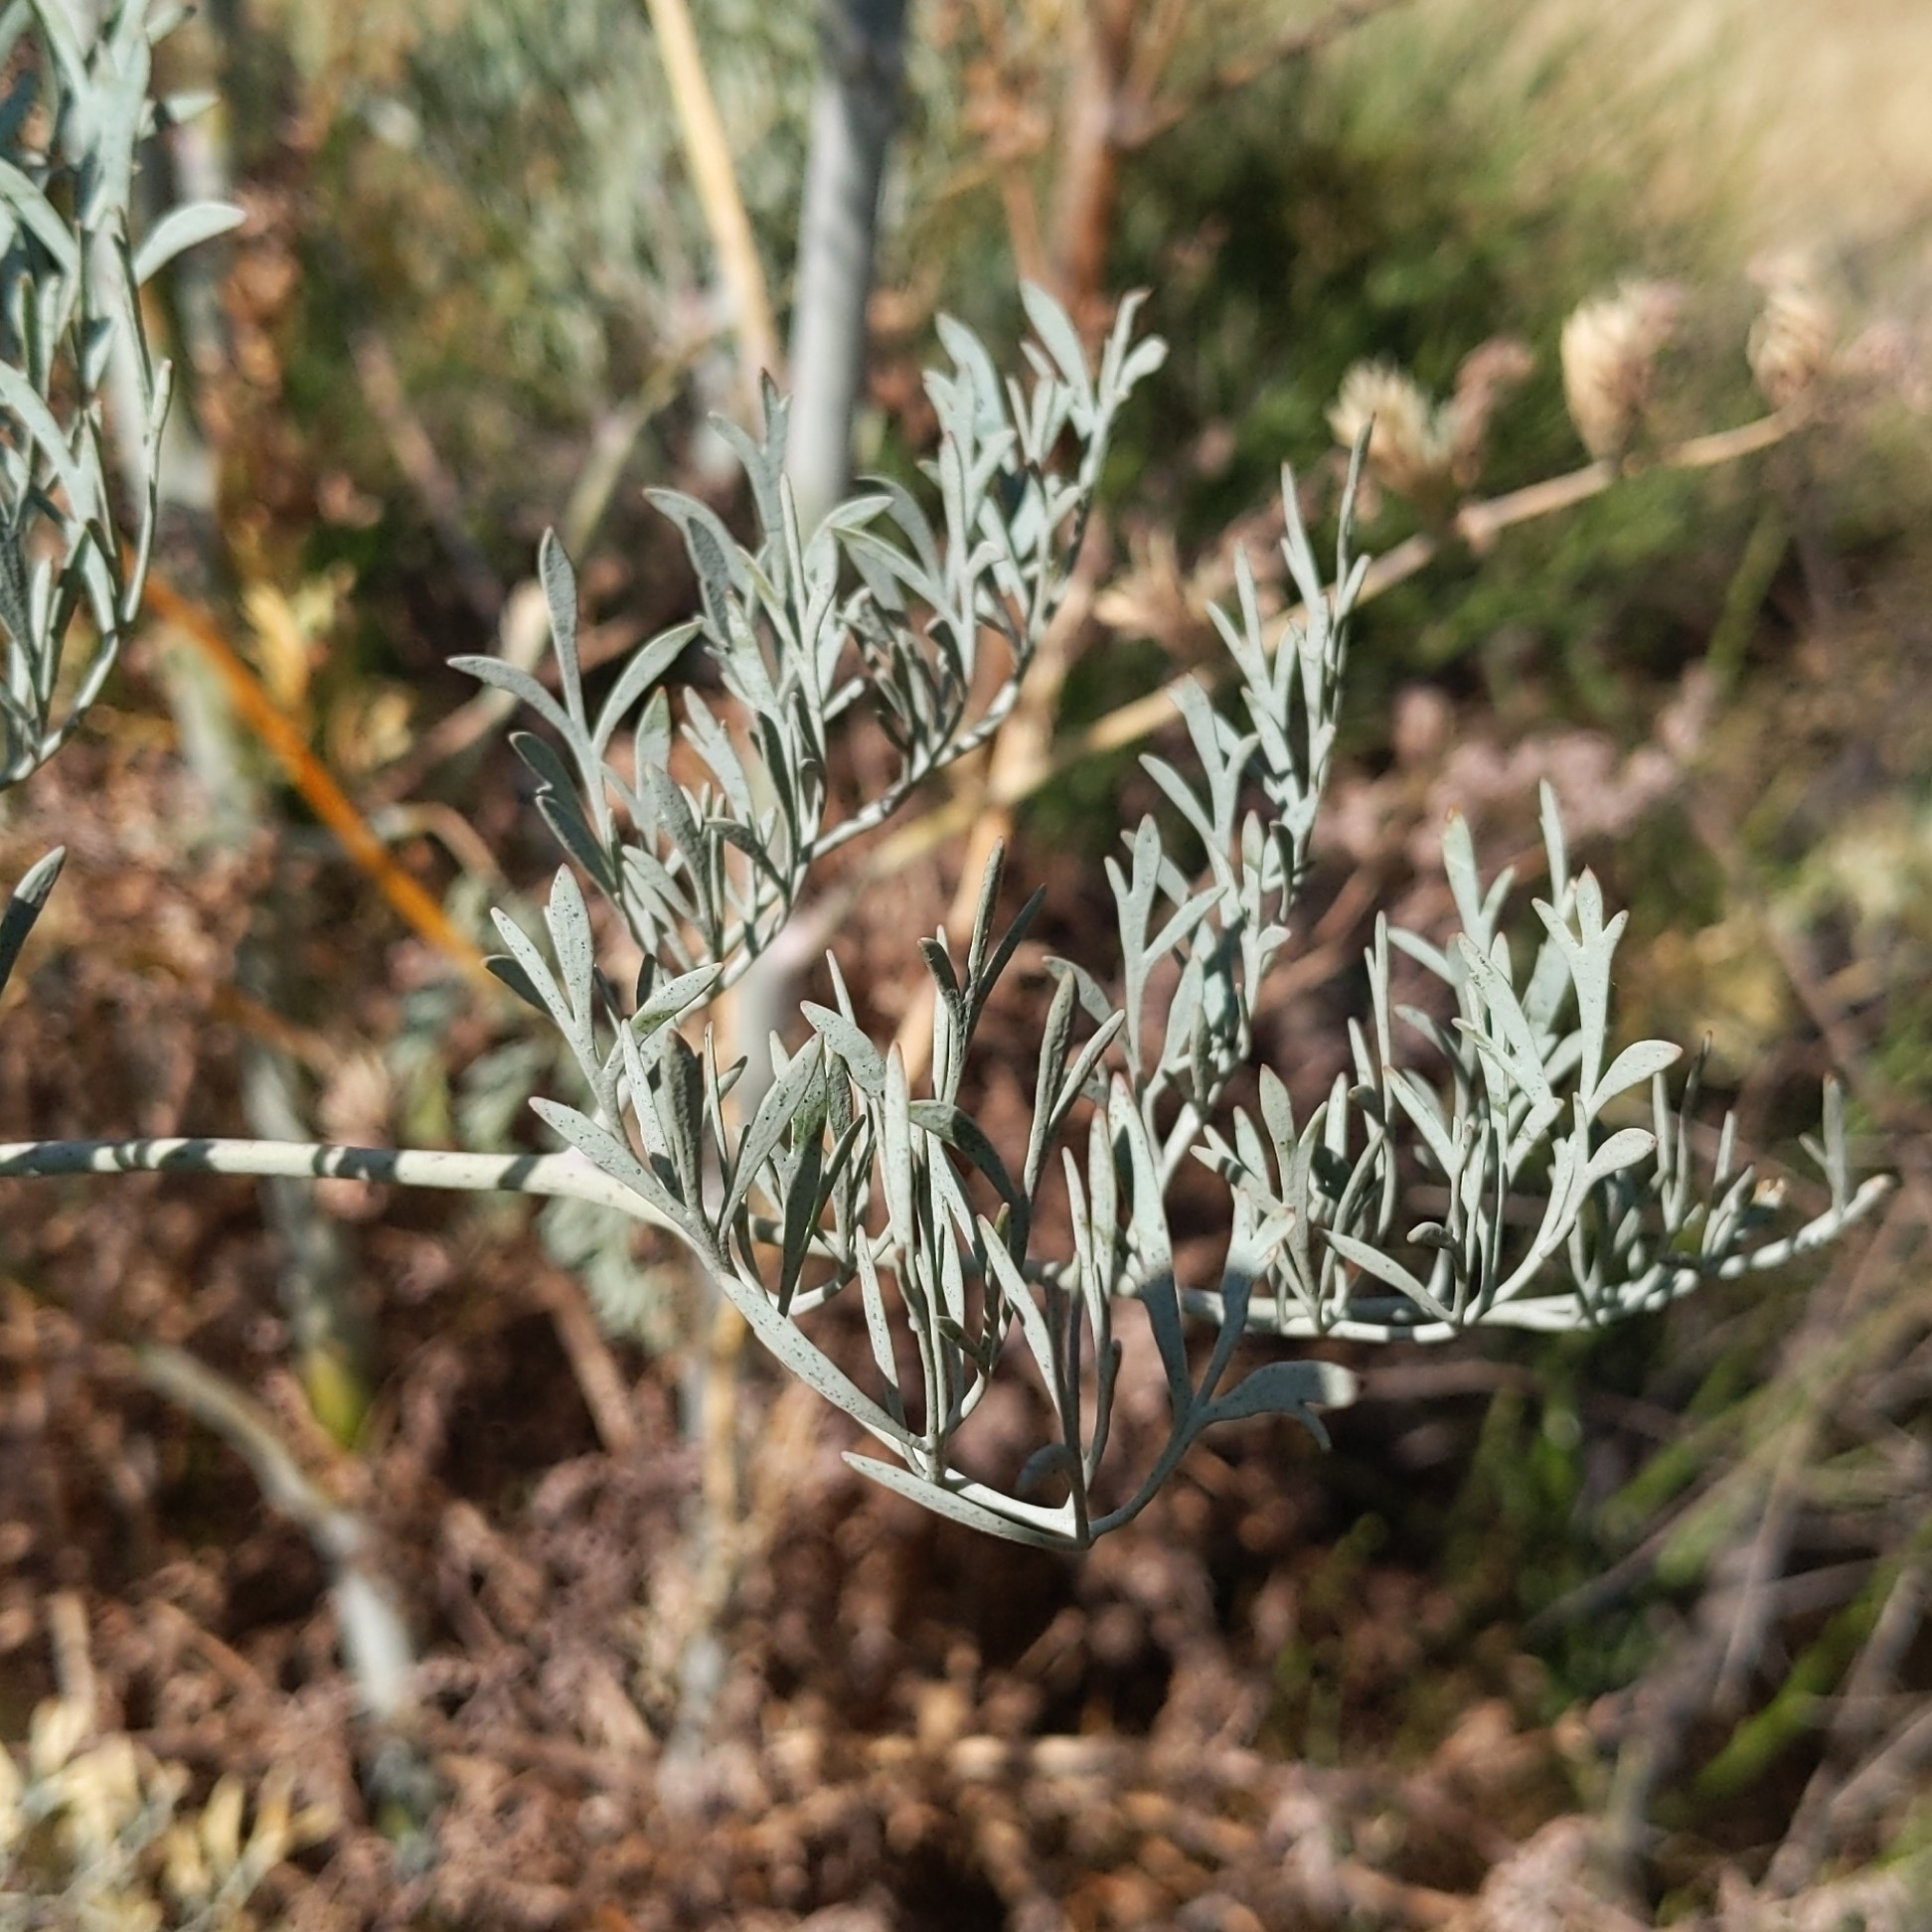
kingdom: Plantae
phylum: Tracheophyta
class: Magnoliopsida
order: Ranunculales
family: Papaveraceae
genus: Ehrendorferia
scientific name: Ehrendorferia ochroleuca
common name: White eardrops
